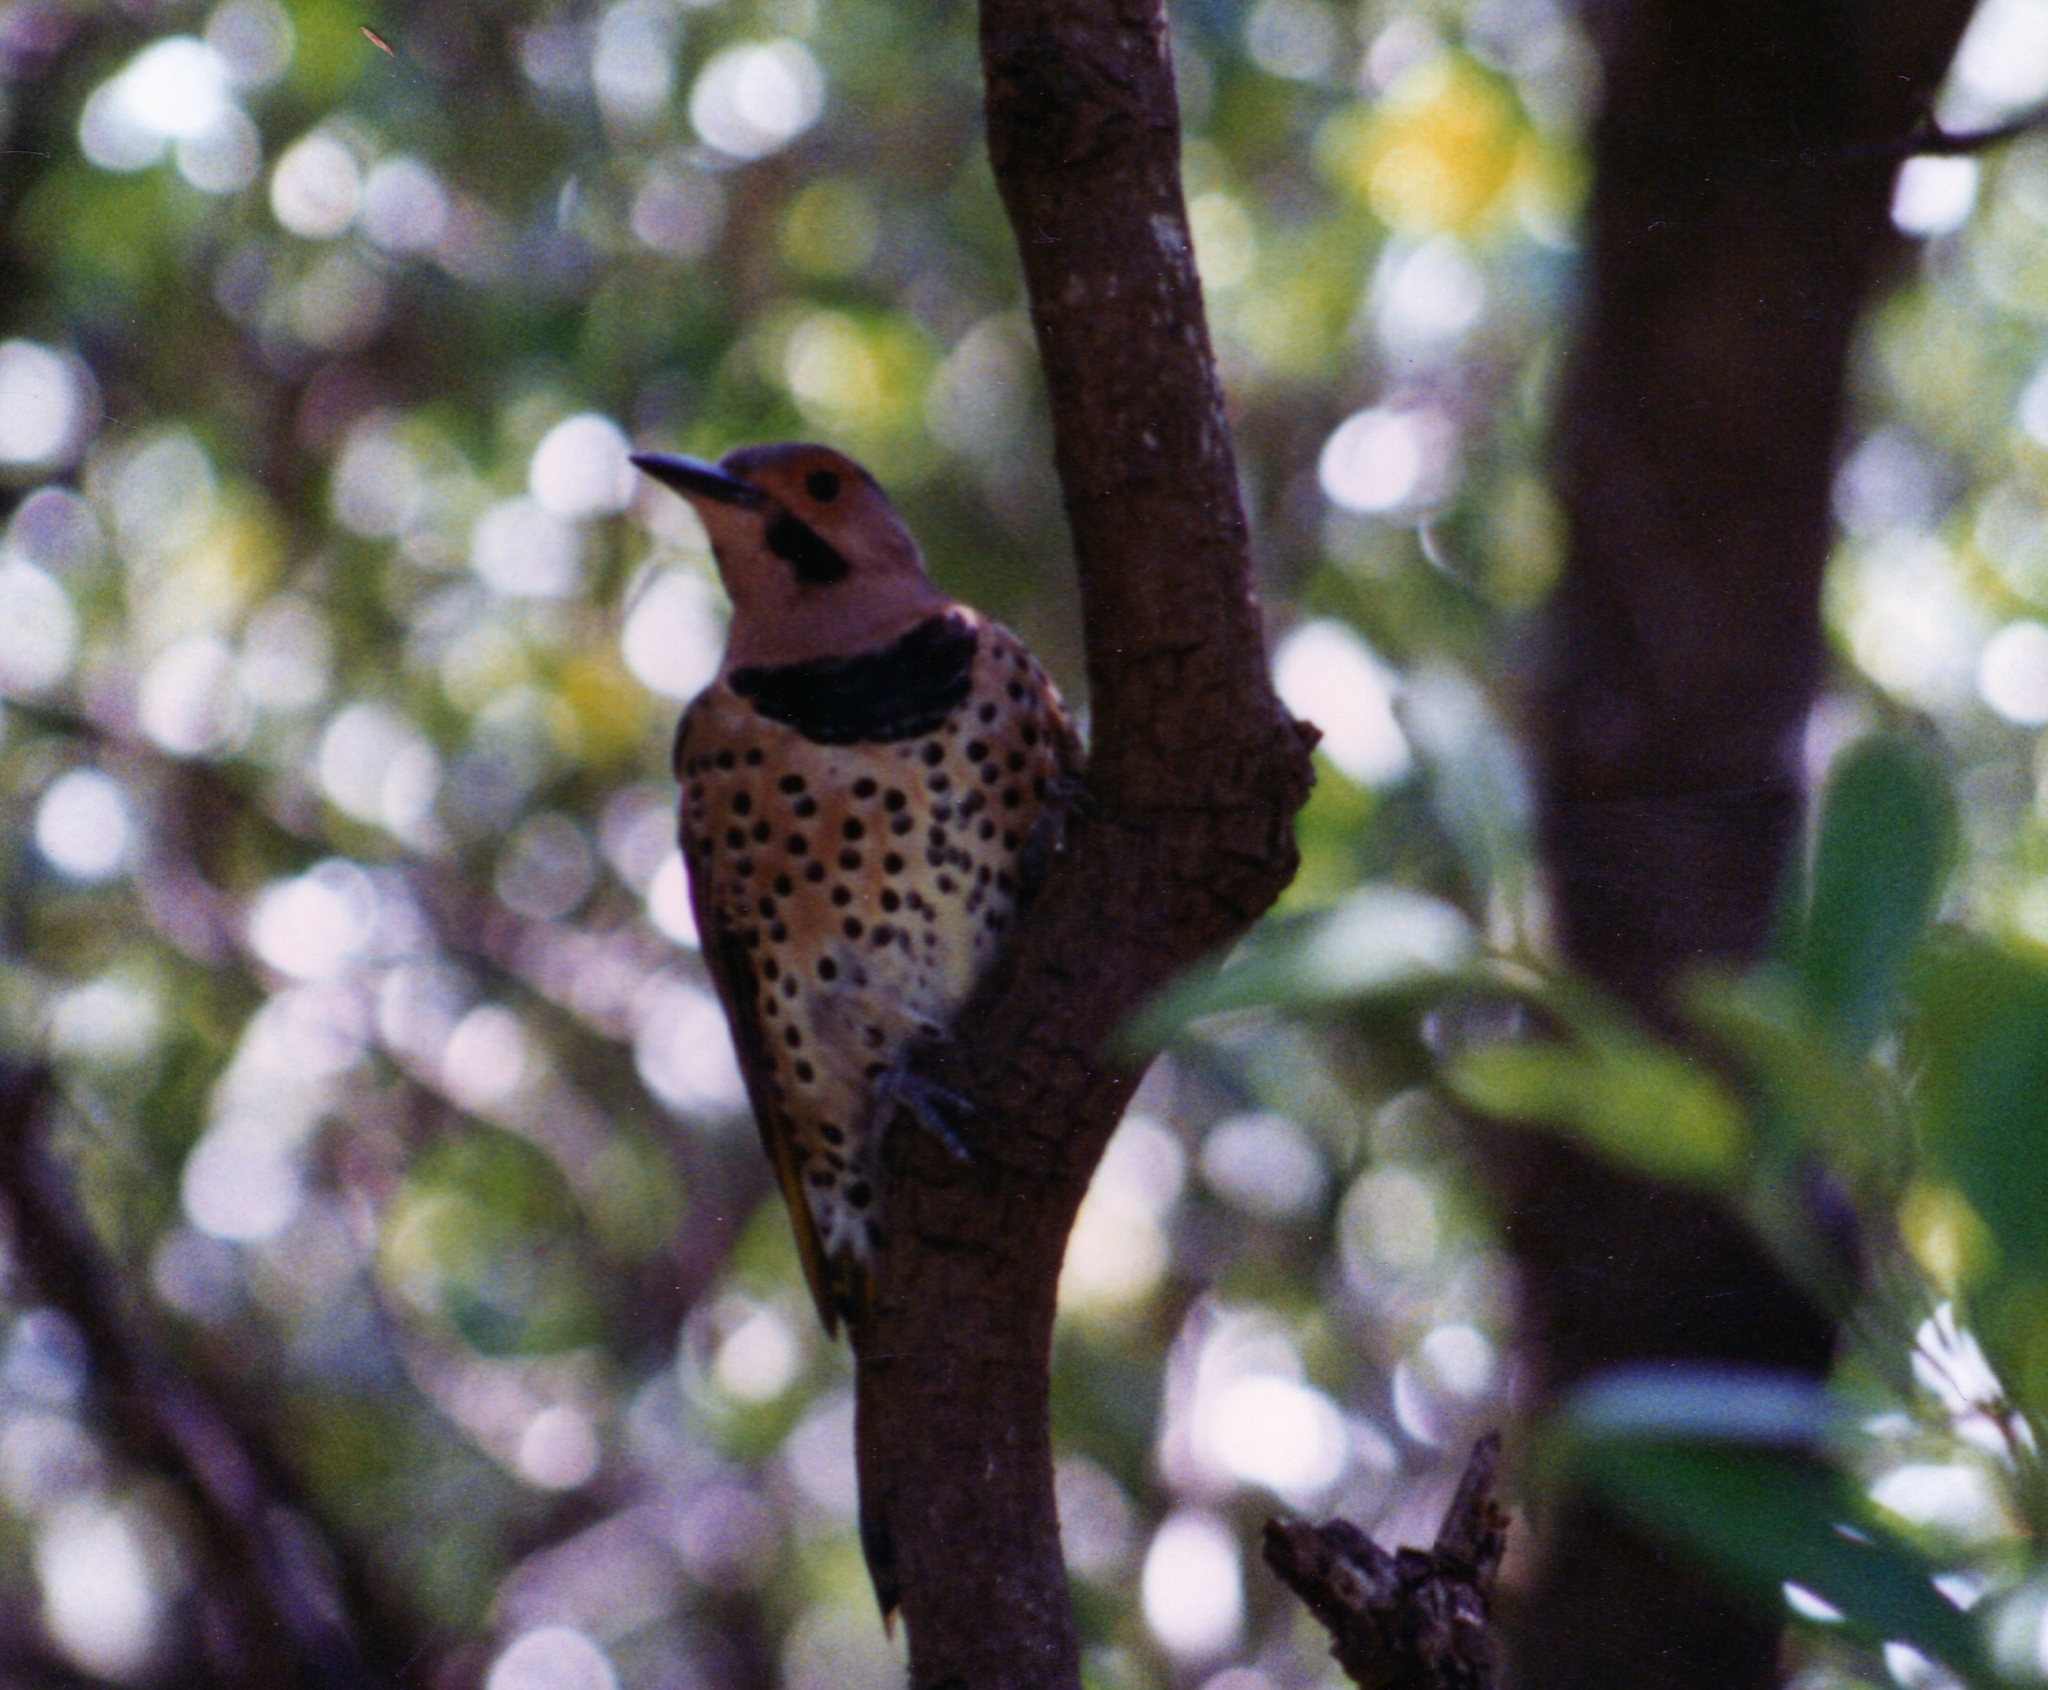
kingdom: Animalia
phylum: Chordata
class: Aves
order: Piciformes
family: Picidae
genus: Colaptes
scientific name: Colaptes auratus
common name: Northern flicker
